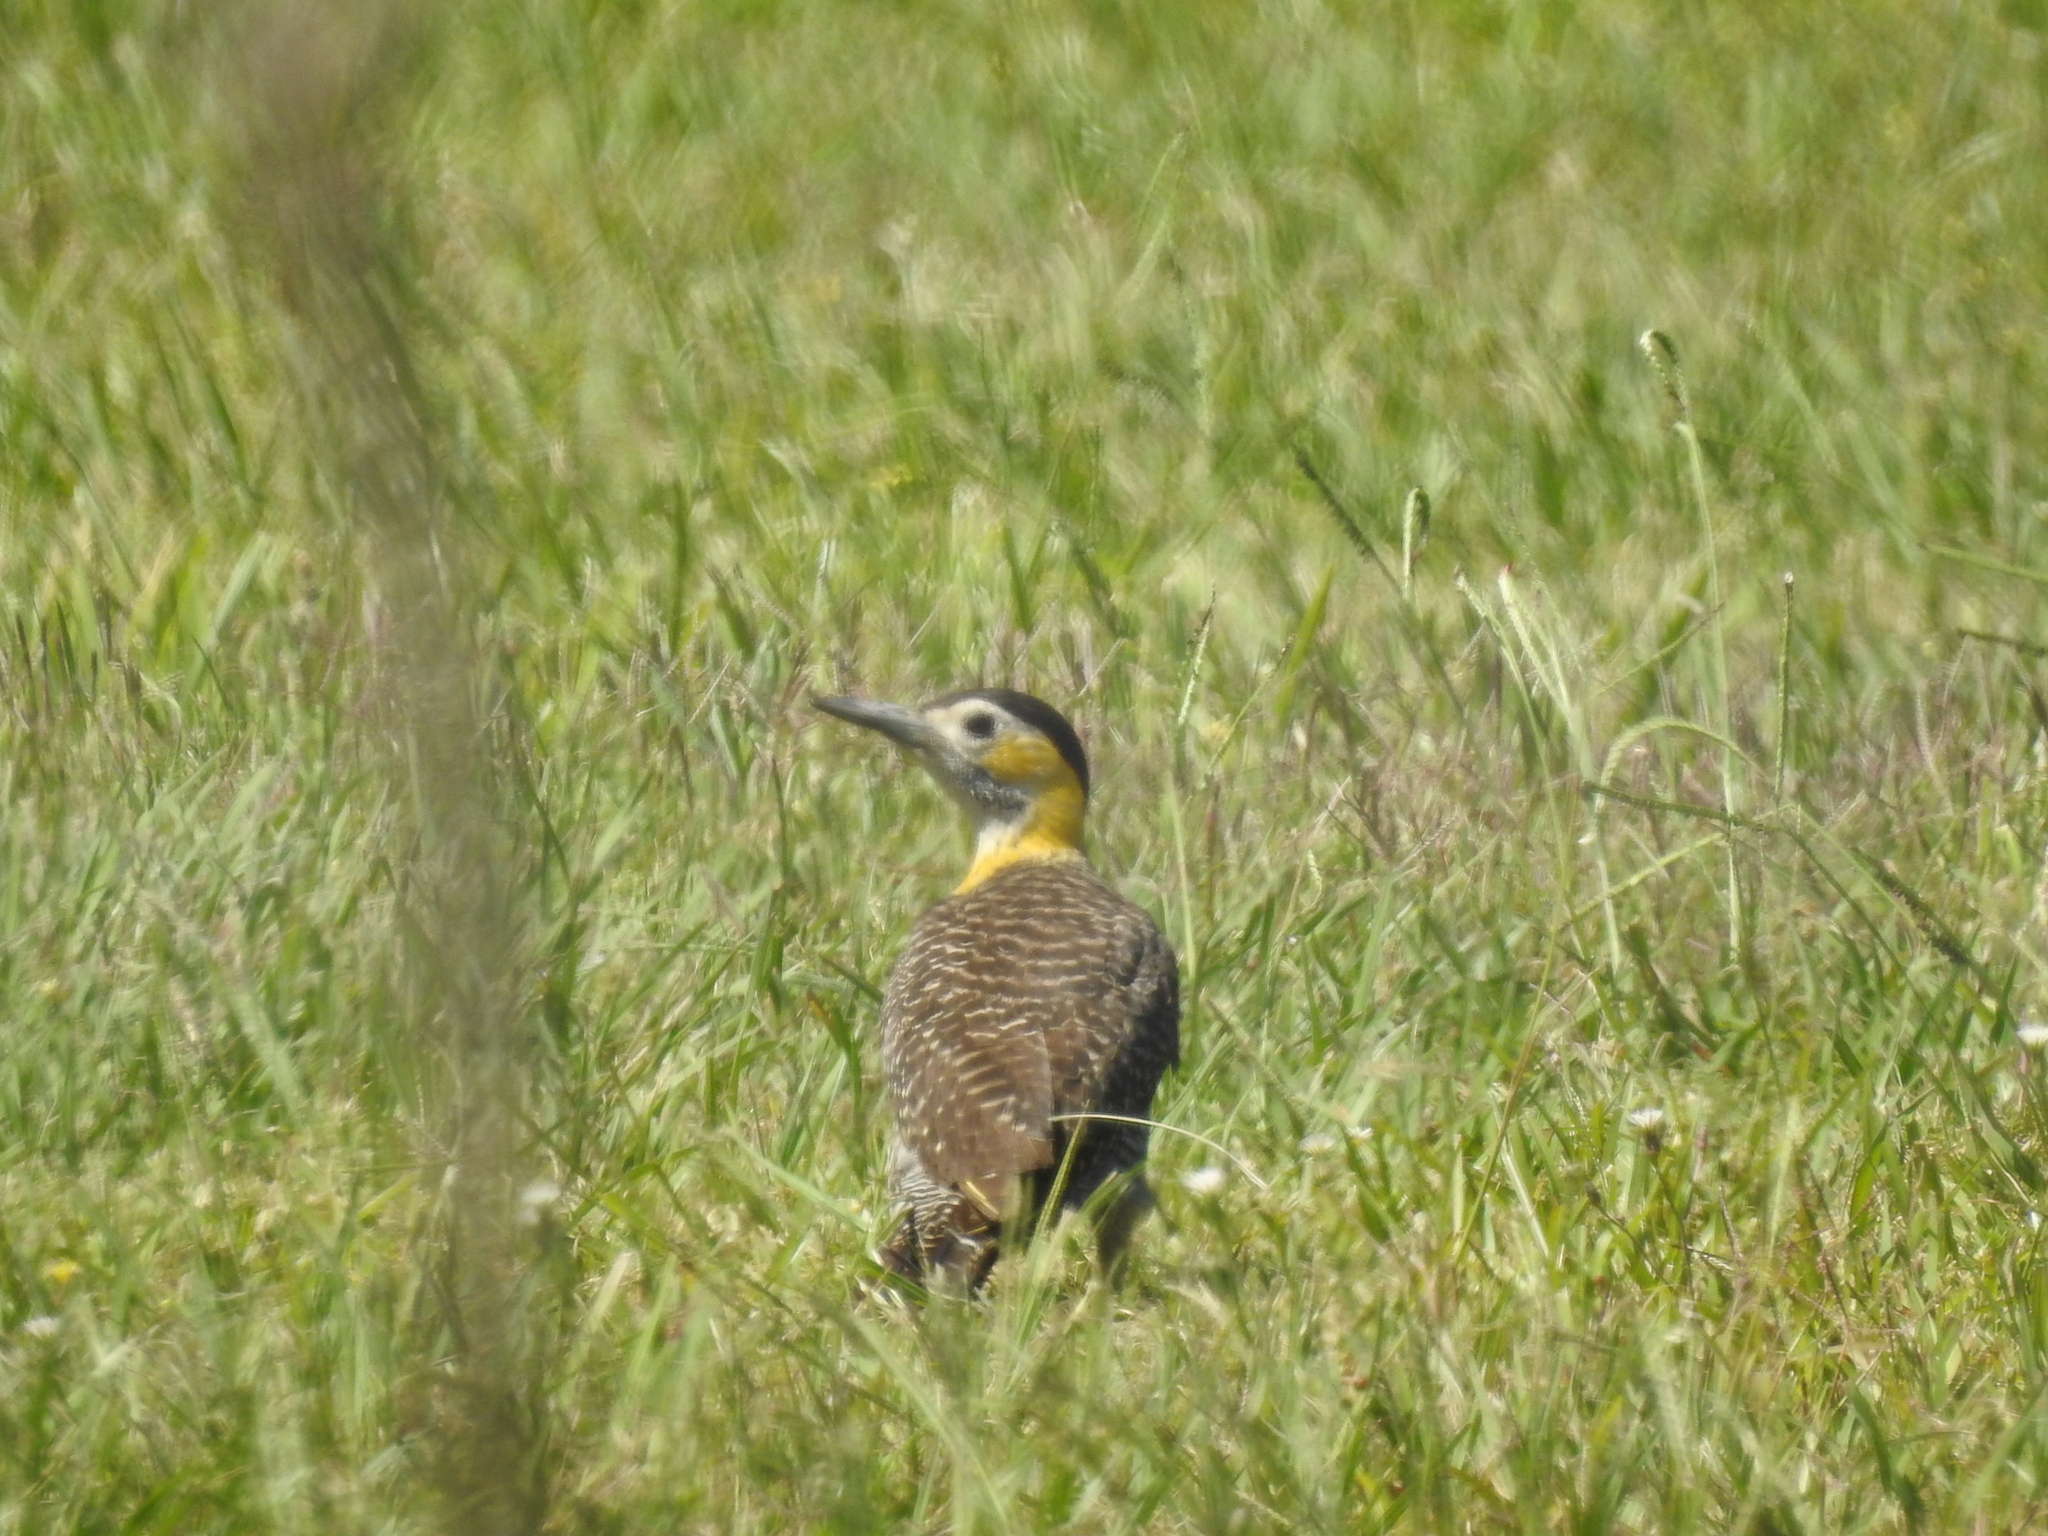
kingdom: Animalia
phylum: Chordata
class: Aves
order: Piciformes
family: Picidae
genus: Colaptes
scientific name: Colaptes campestris
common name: Campo flicker
